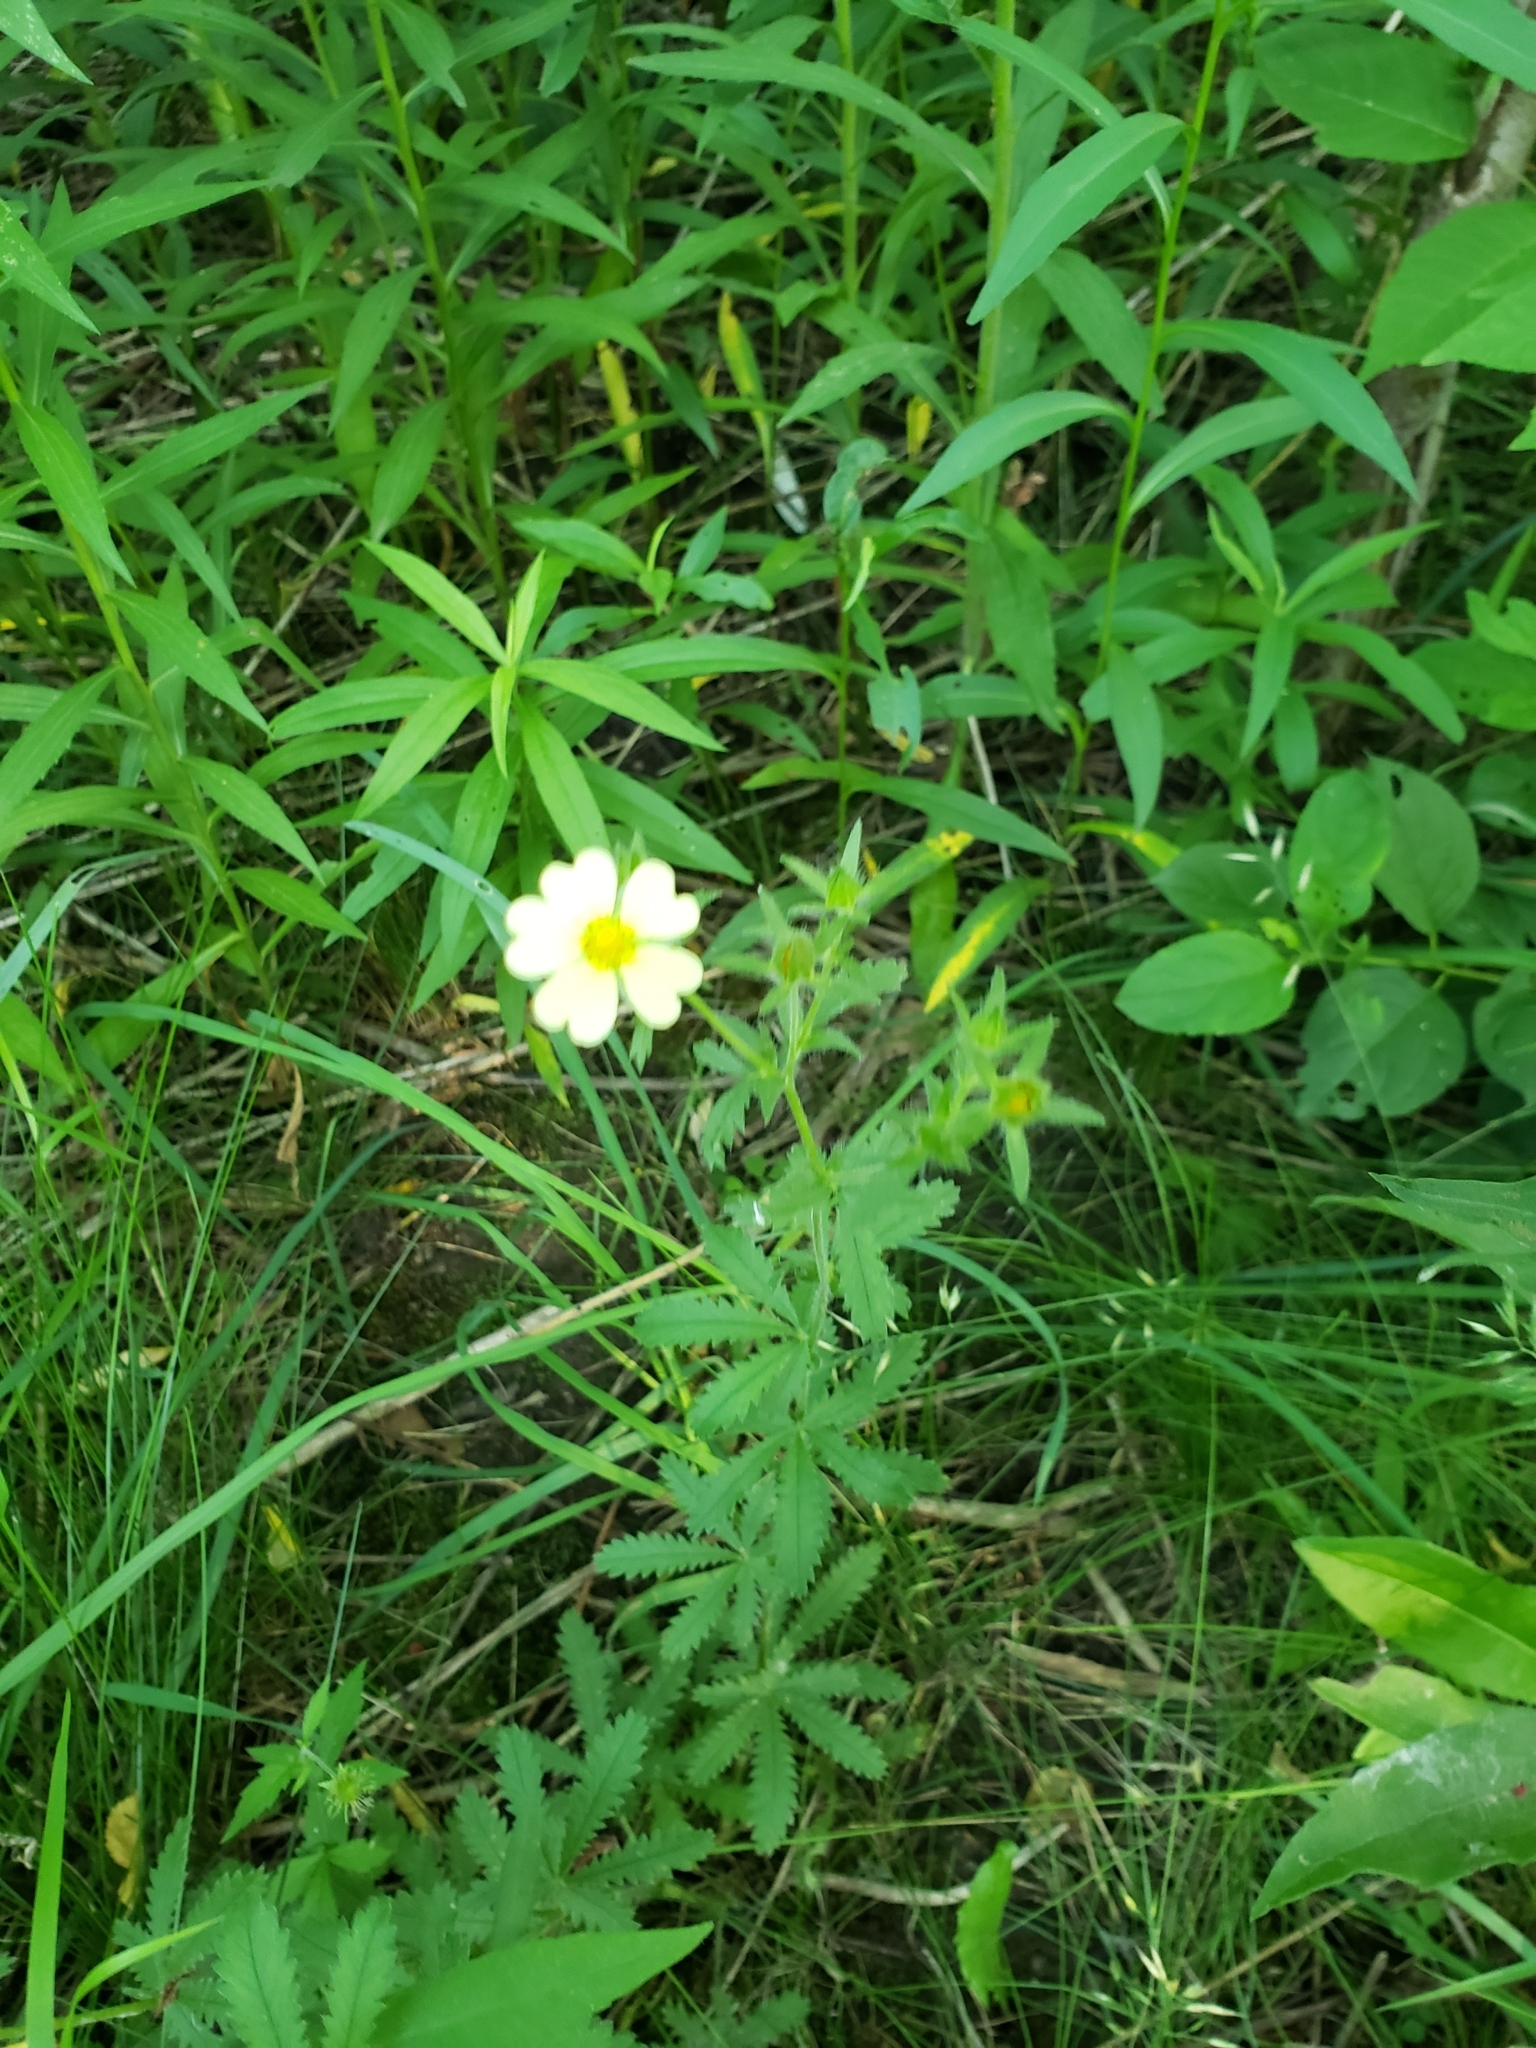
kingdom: Plantae
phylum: Tracheophyta
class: Magnoliopsida
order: Rosales
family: Rosaceae
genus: Potentilla
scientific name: Potentilla recta
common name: Sulphur cinquefoil
